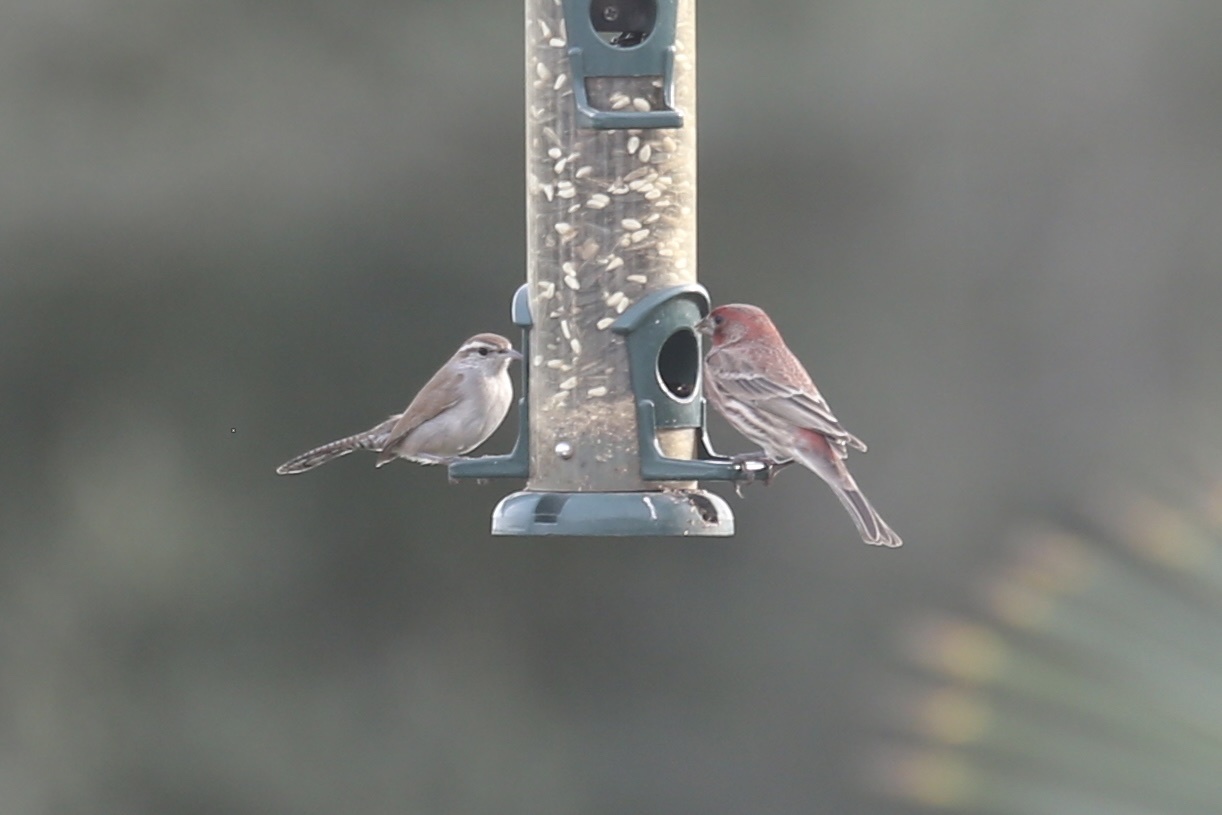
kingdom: Animalia
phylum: Chordata
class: Aves
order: Passeriformes
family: Troglodytidae
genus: Thryomanes
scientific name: Thryomanes bewickii
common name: Bewick's wren
